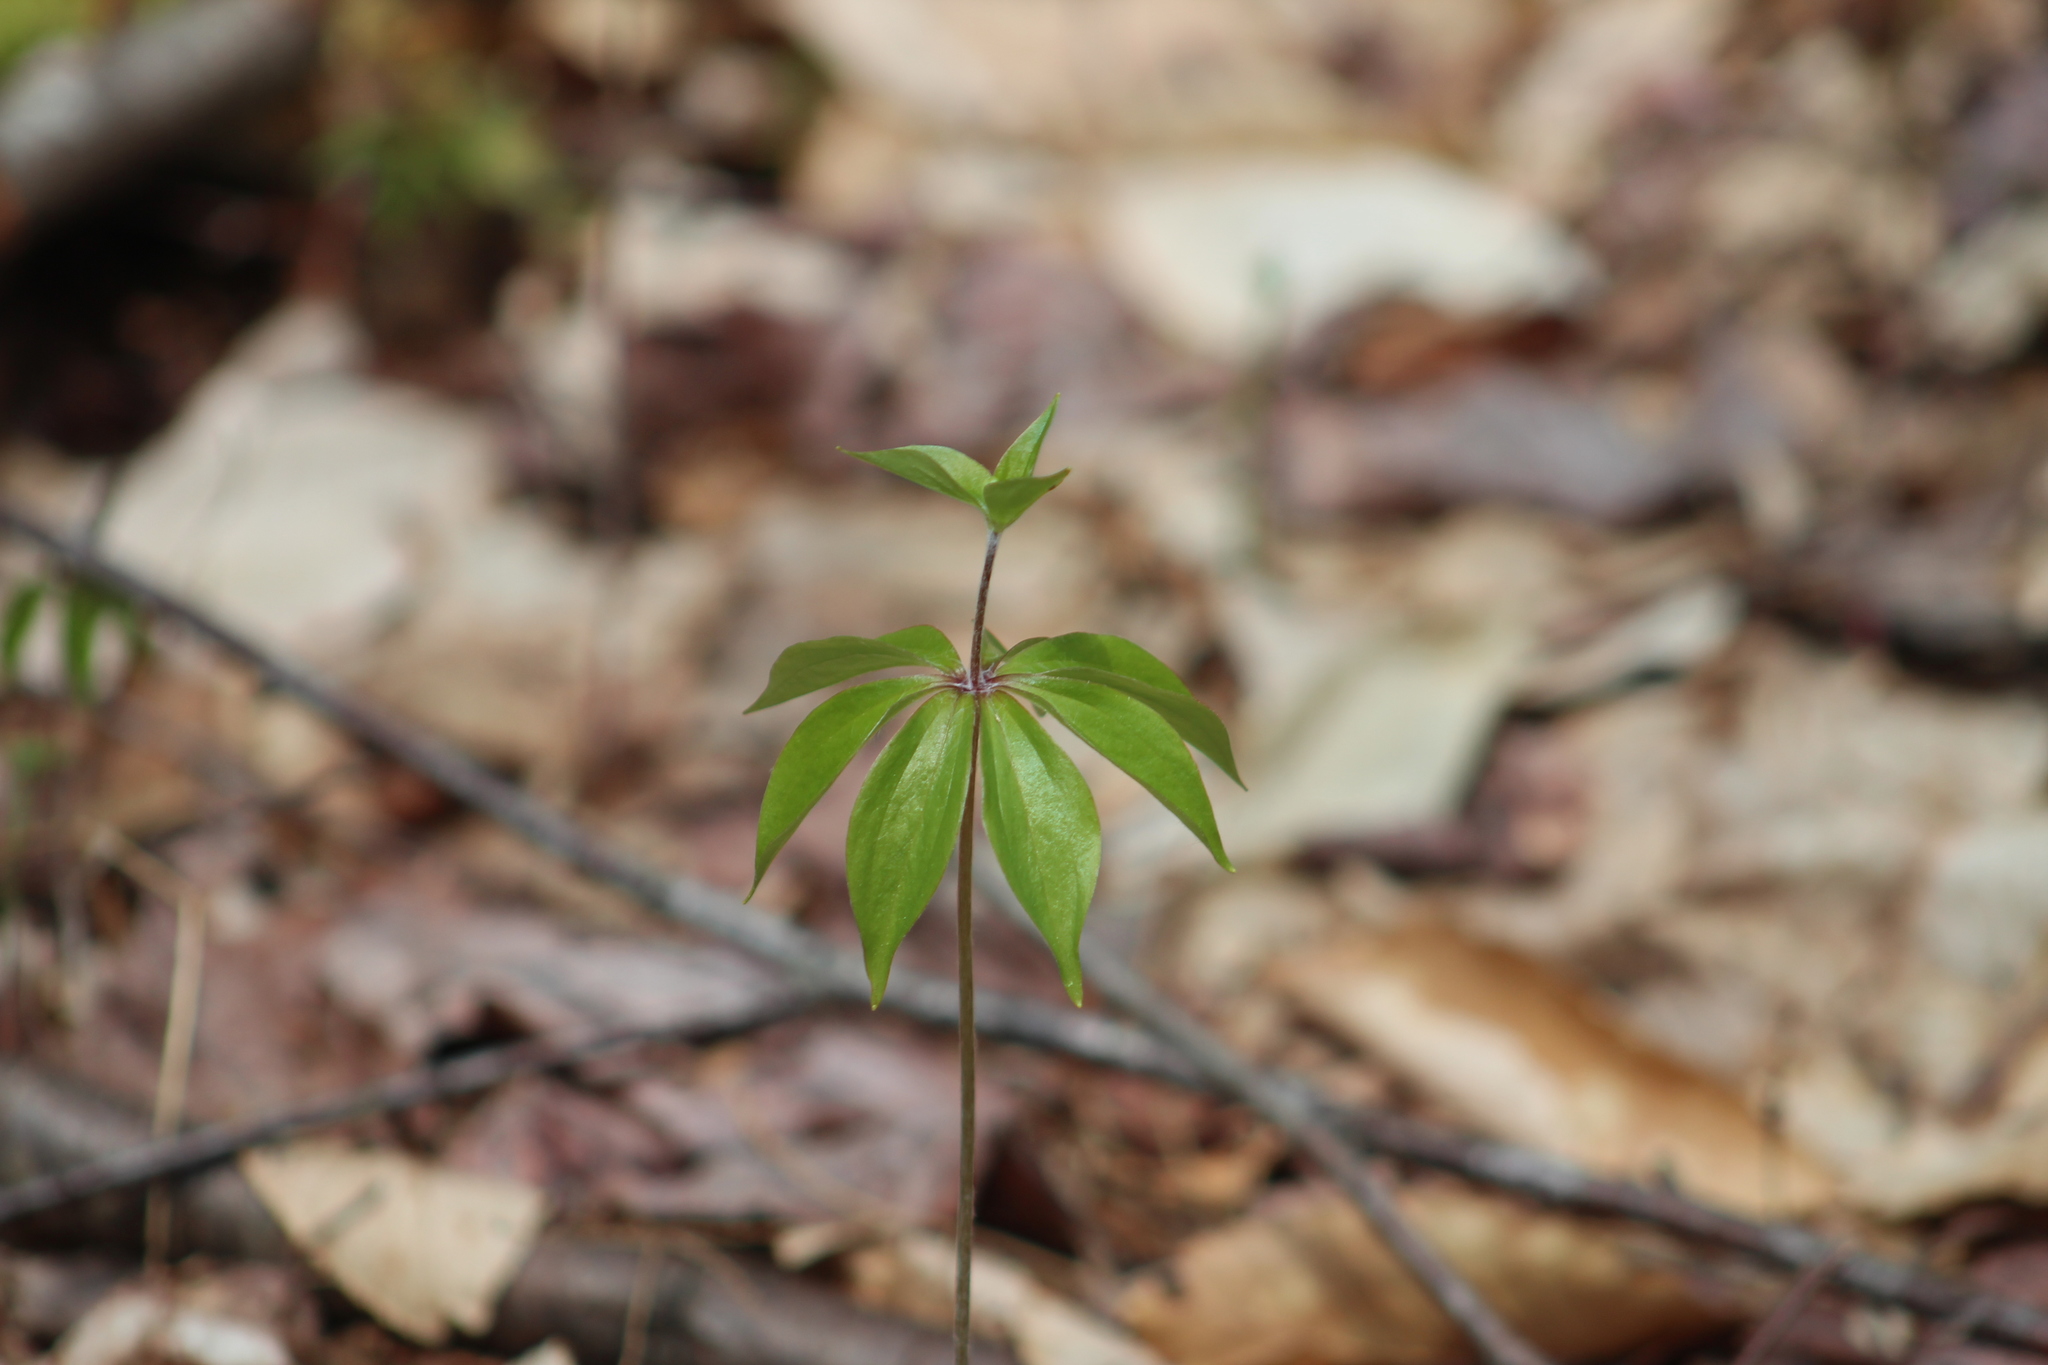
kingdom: Plantae
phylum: Tracheophyta
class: Liliopsida
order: Liliales
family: Liliaceae
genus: Medeola
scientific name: Medeola virginiana
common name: Indian cucumber-root
